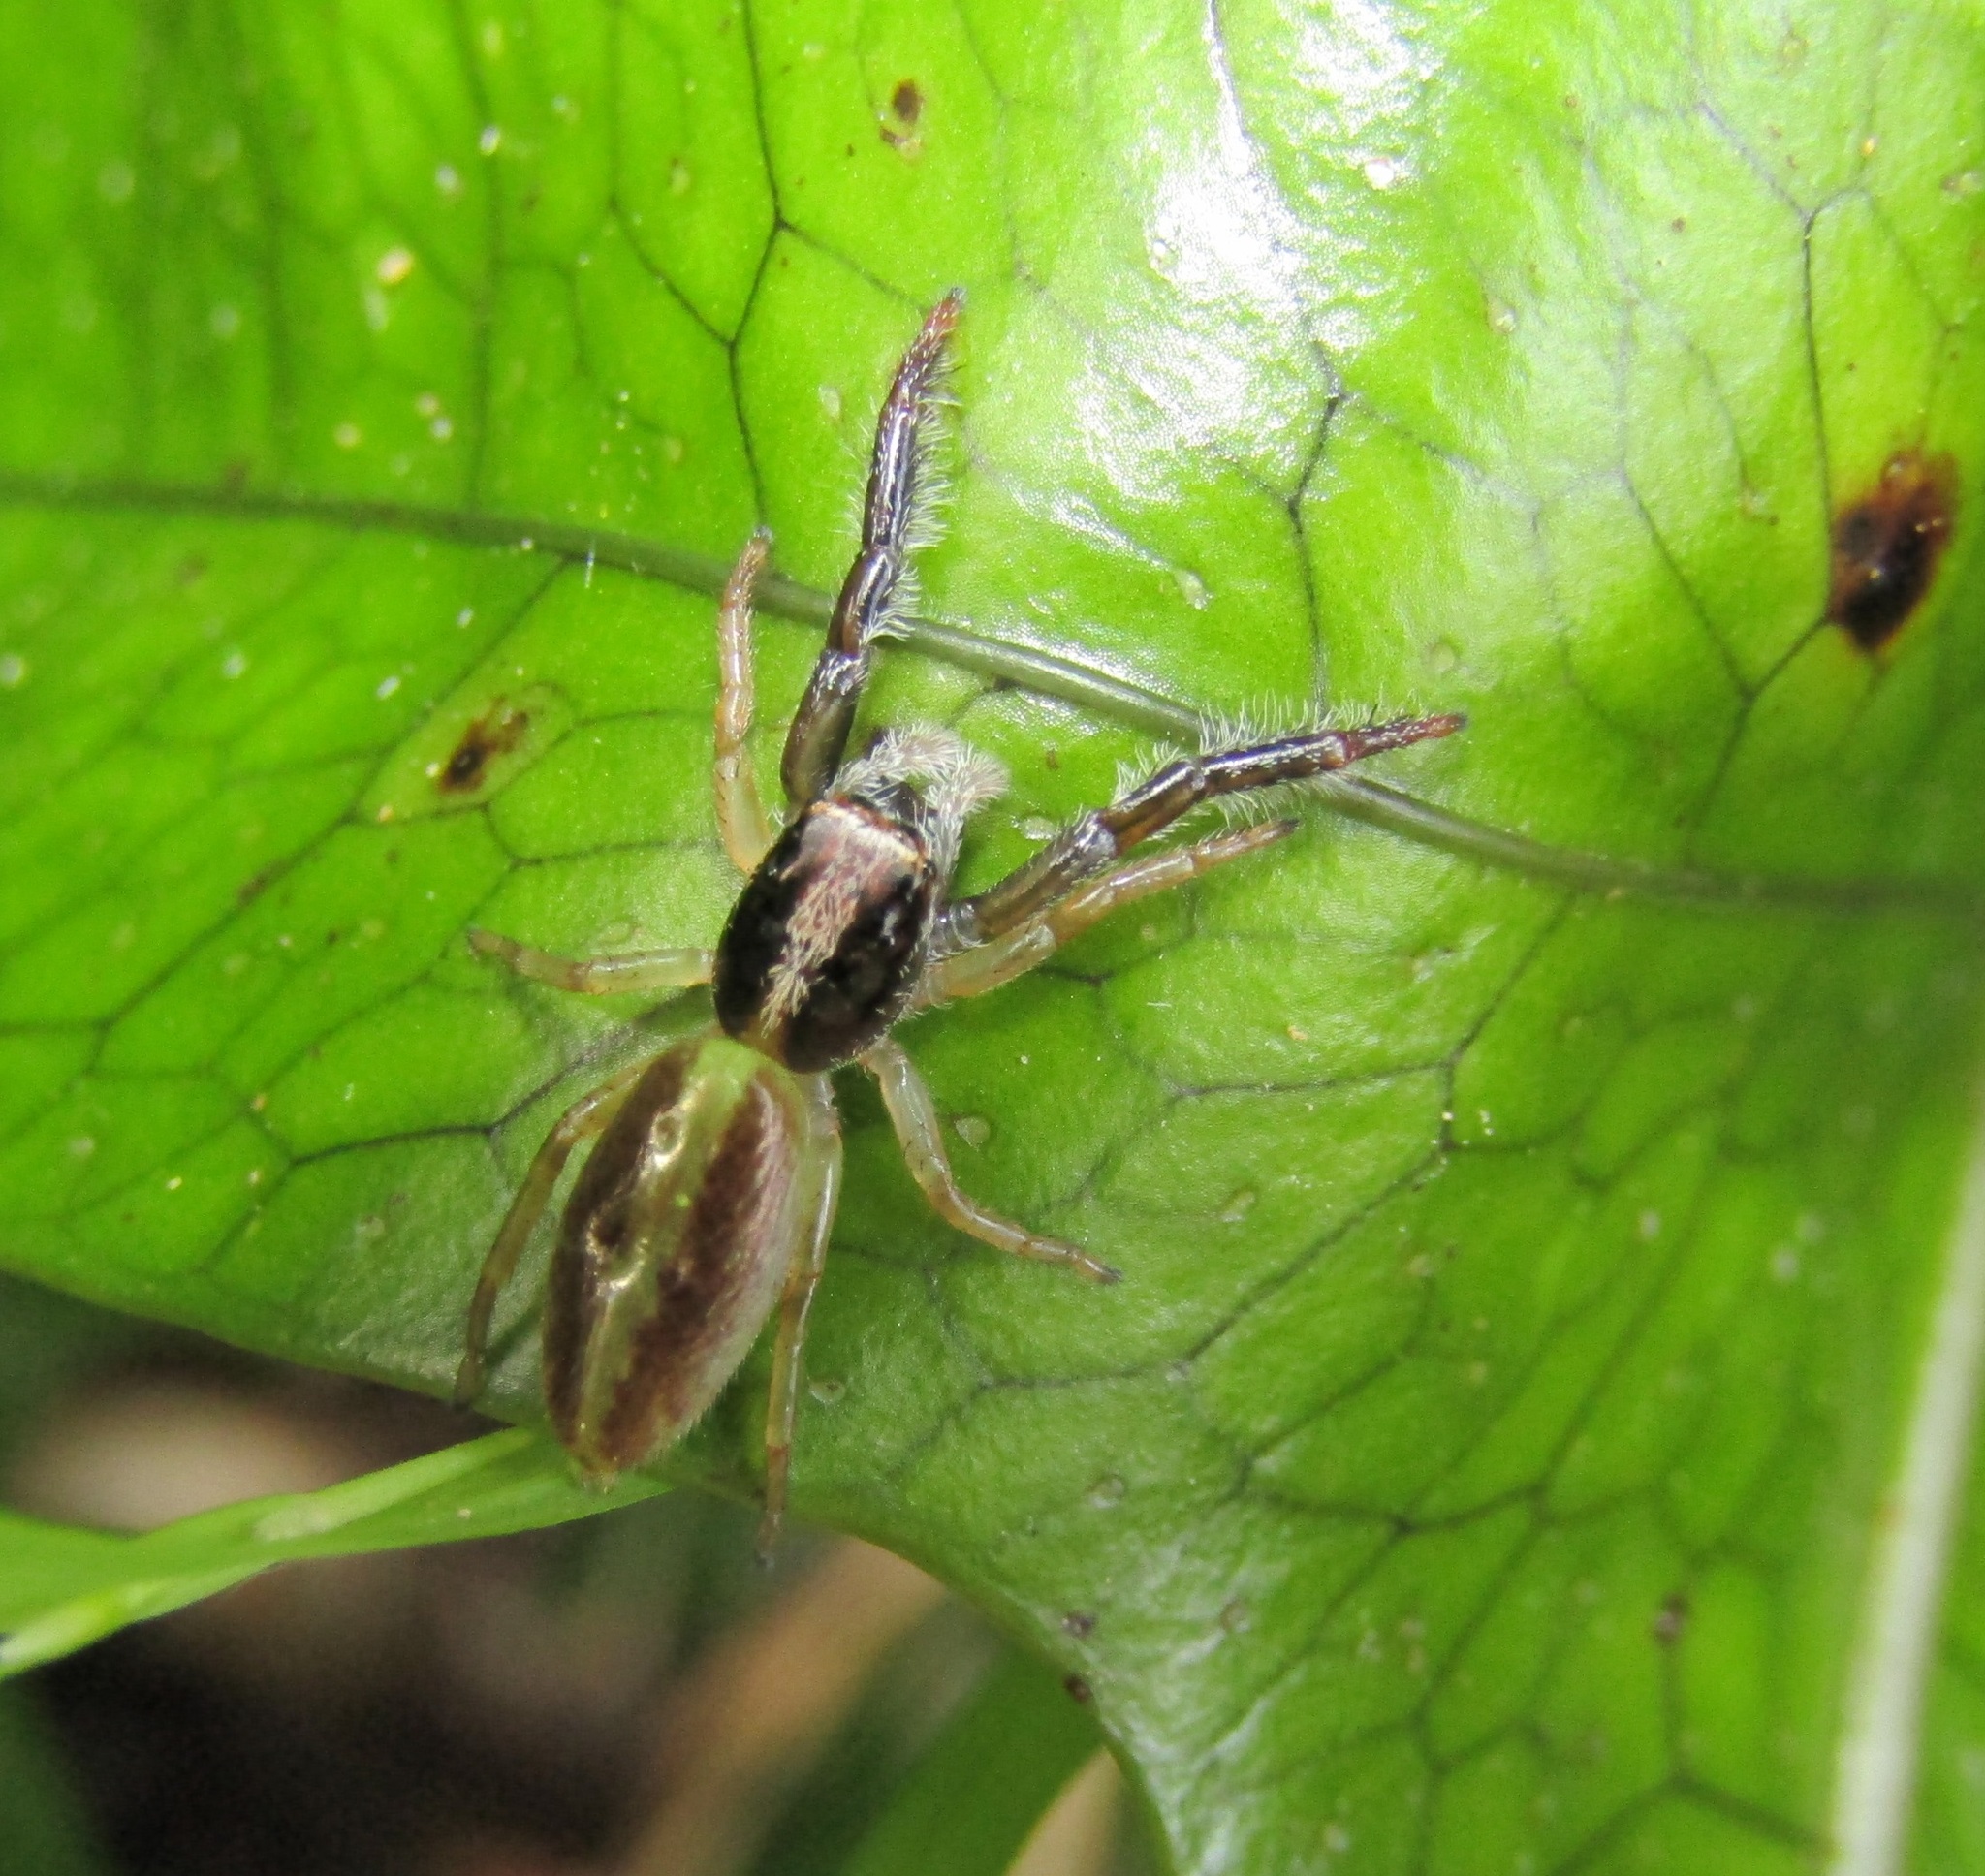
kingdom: Animalia
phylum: Arthropoda
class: Arachnida
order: Araneae
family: Salticidae
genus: Trite
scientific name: Trite planiceps
